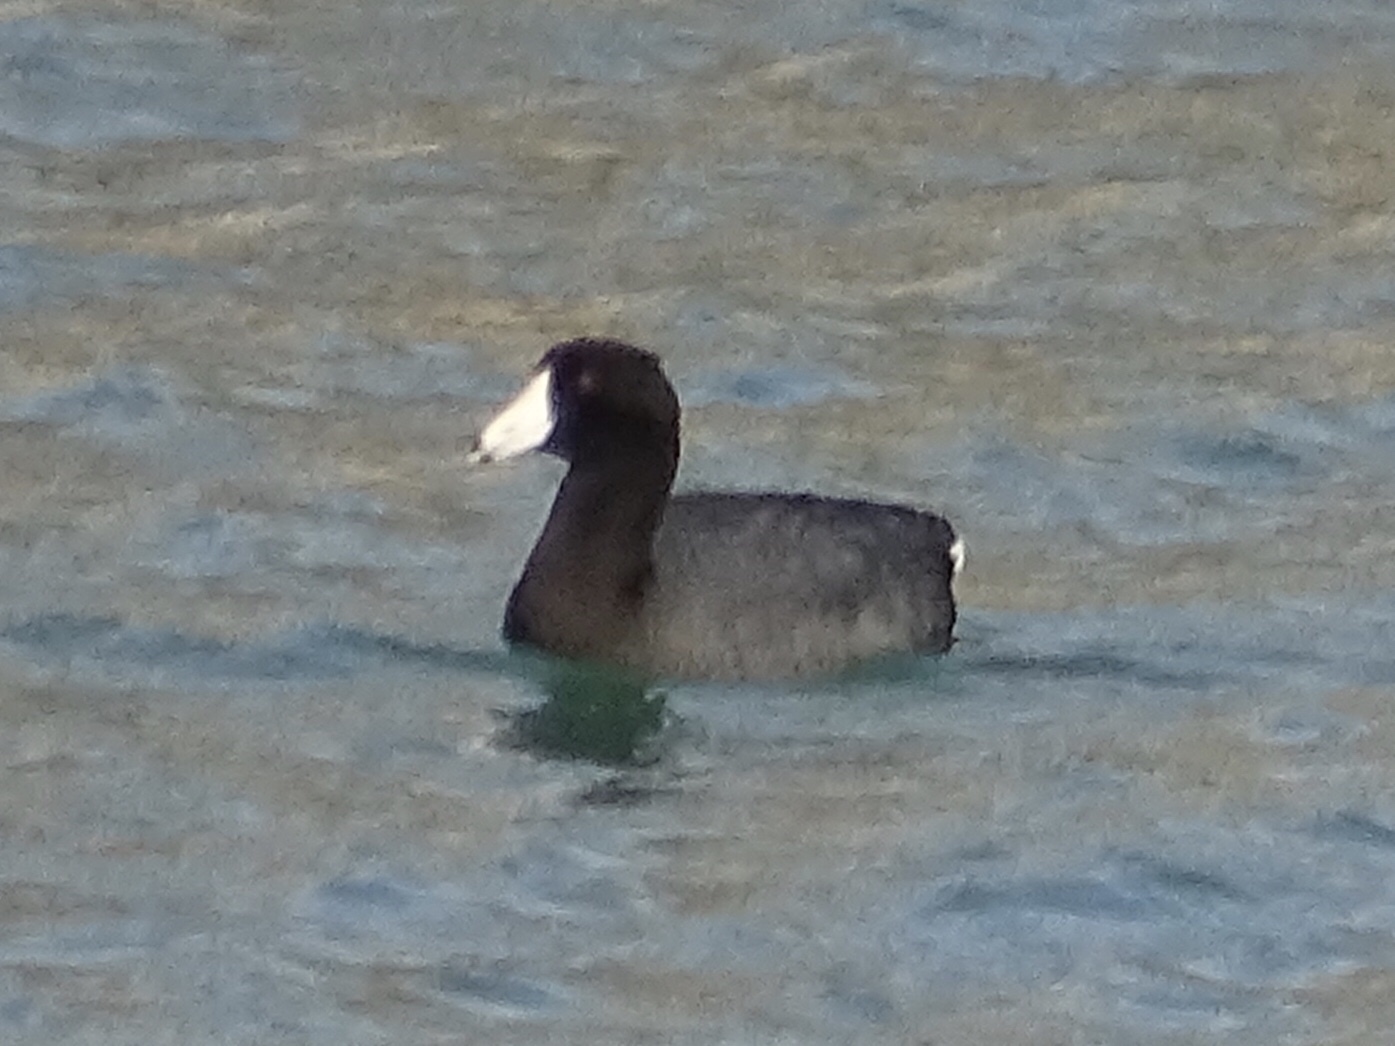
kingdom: Animalia
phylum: Chordata
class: Aves
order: Gruiformes
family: Rallidae
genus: Fulica
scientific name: Fulica americana
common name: American coot
